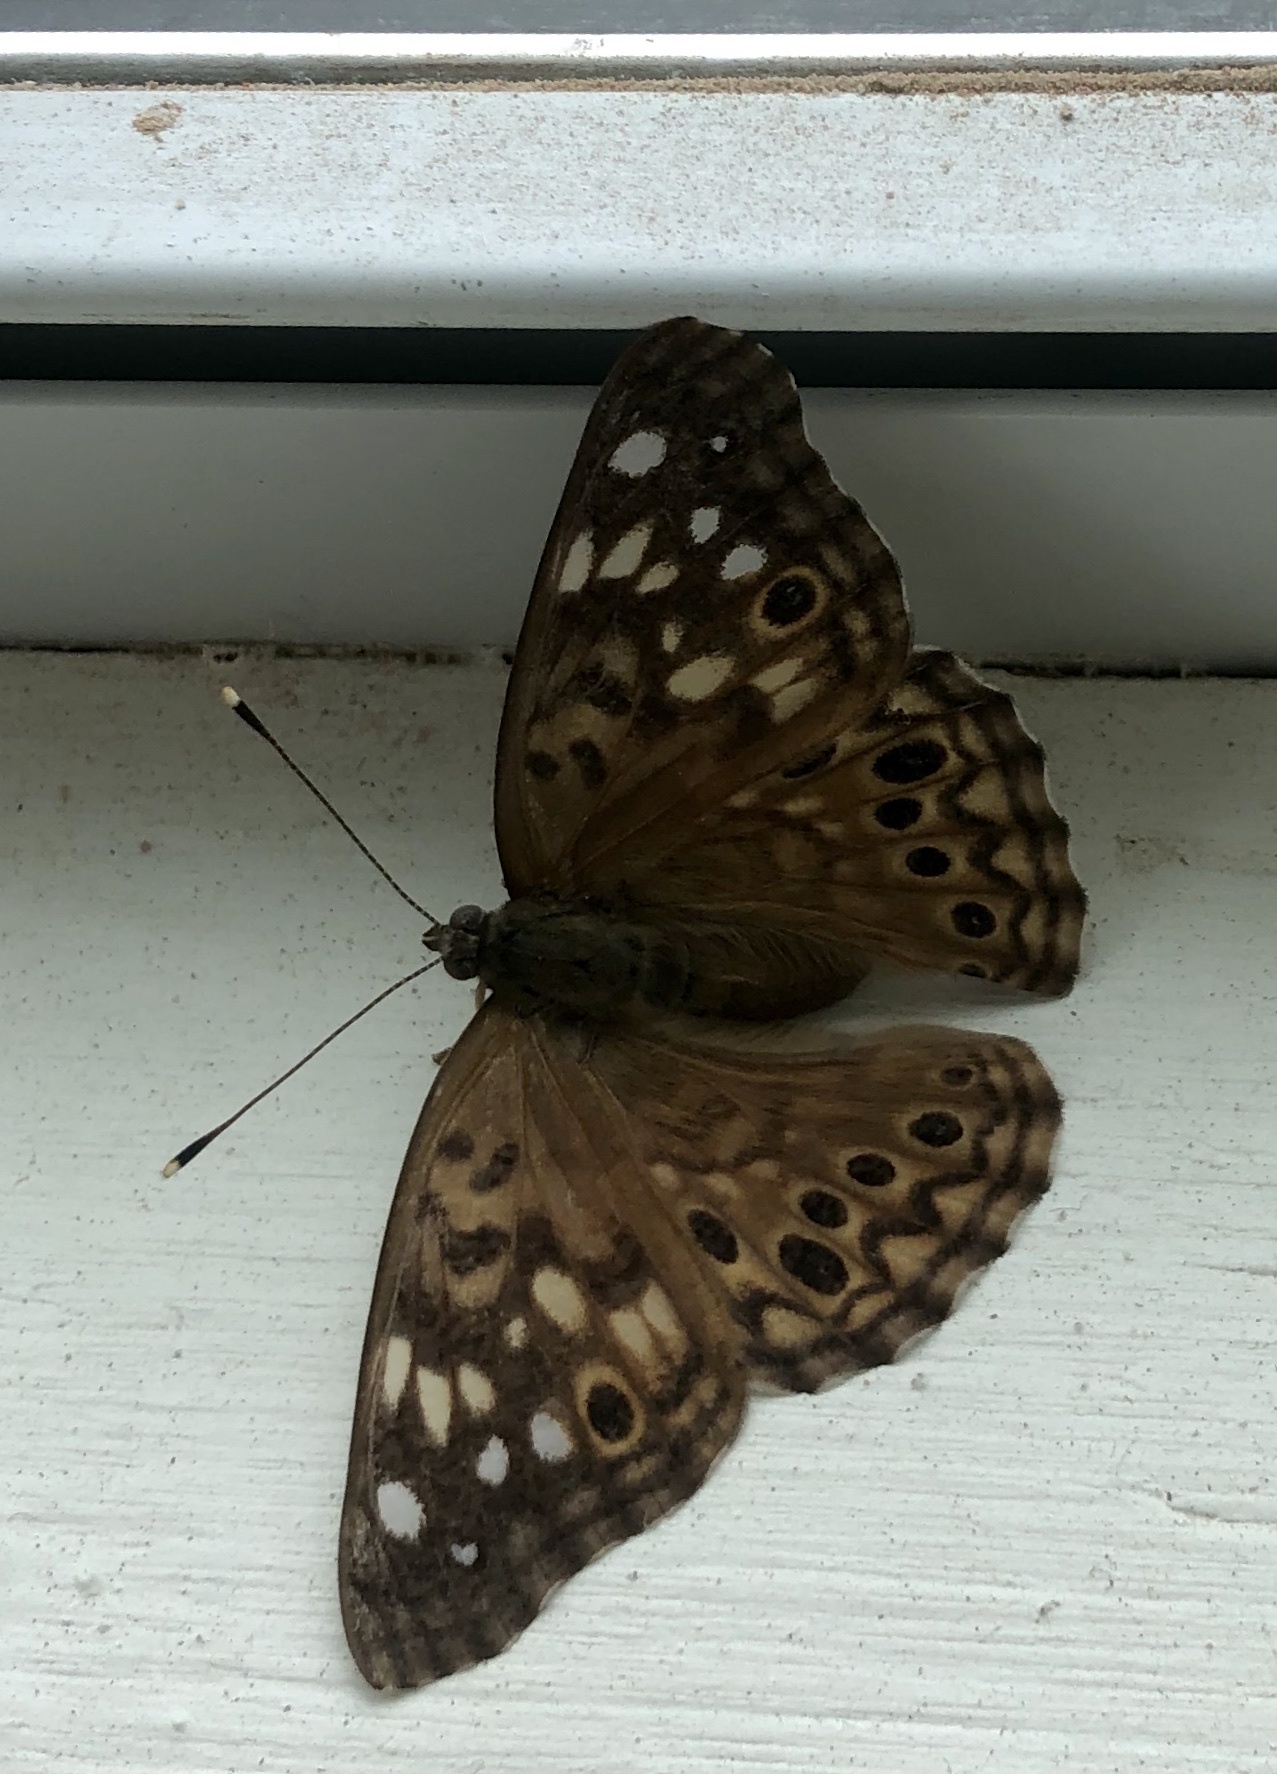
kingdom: Animalia
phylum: Arthropoda
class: Insecta
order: Lepidoptera
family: Nymphalidae
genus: Asterocampa
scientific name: Asterocampa celtis
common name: Hackberry emperor
